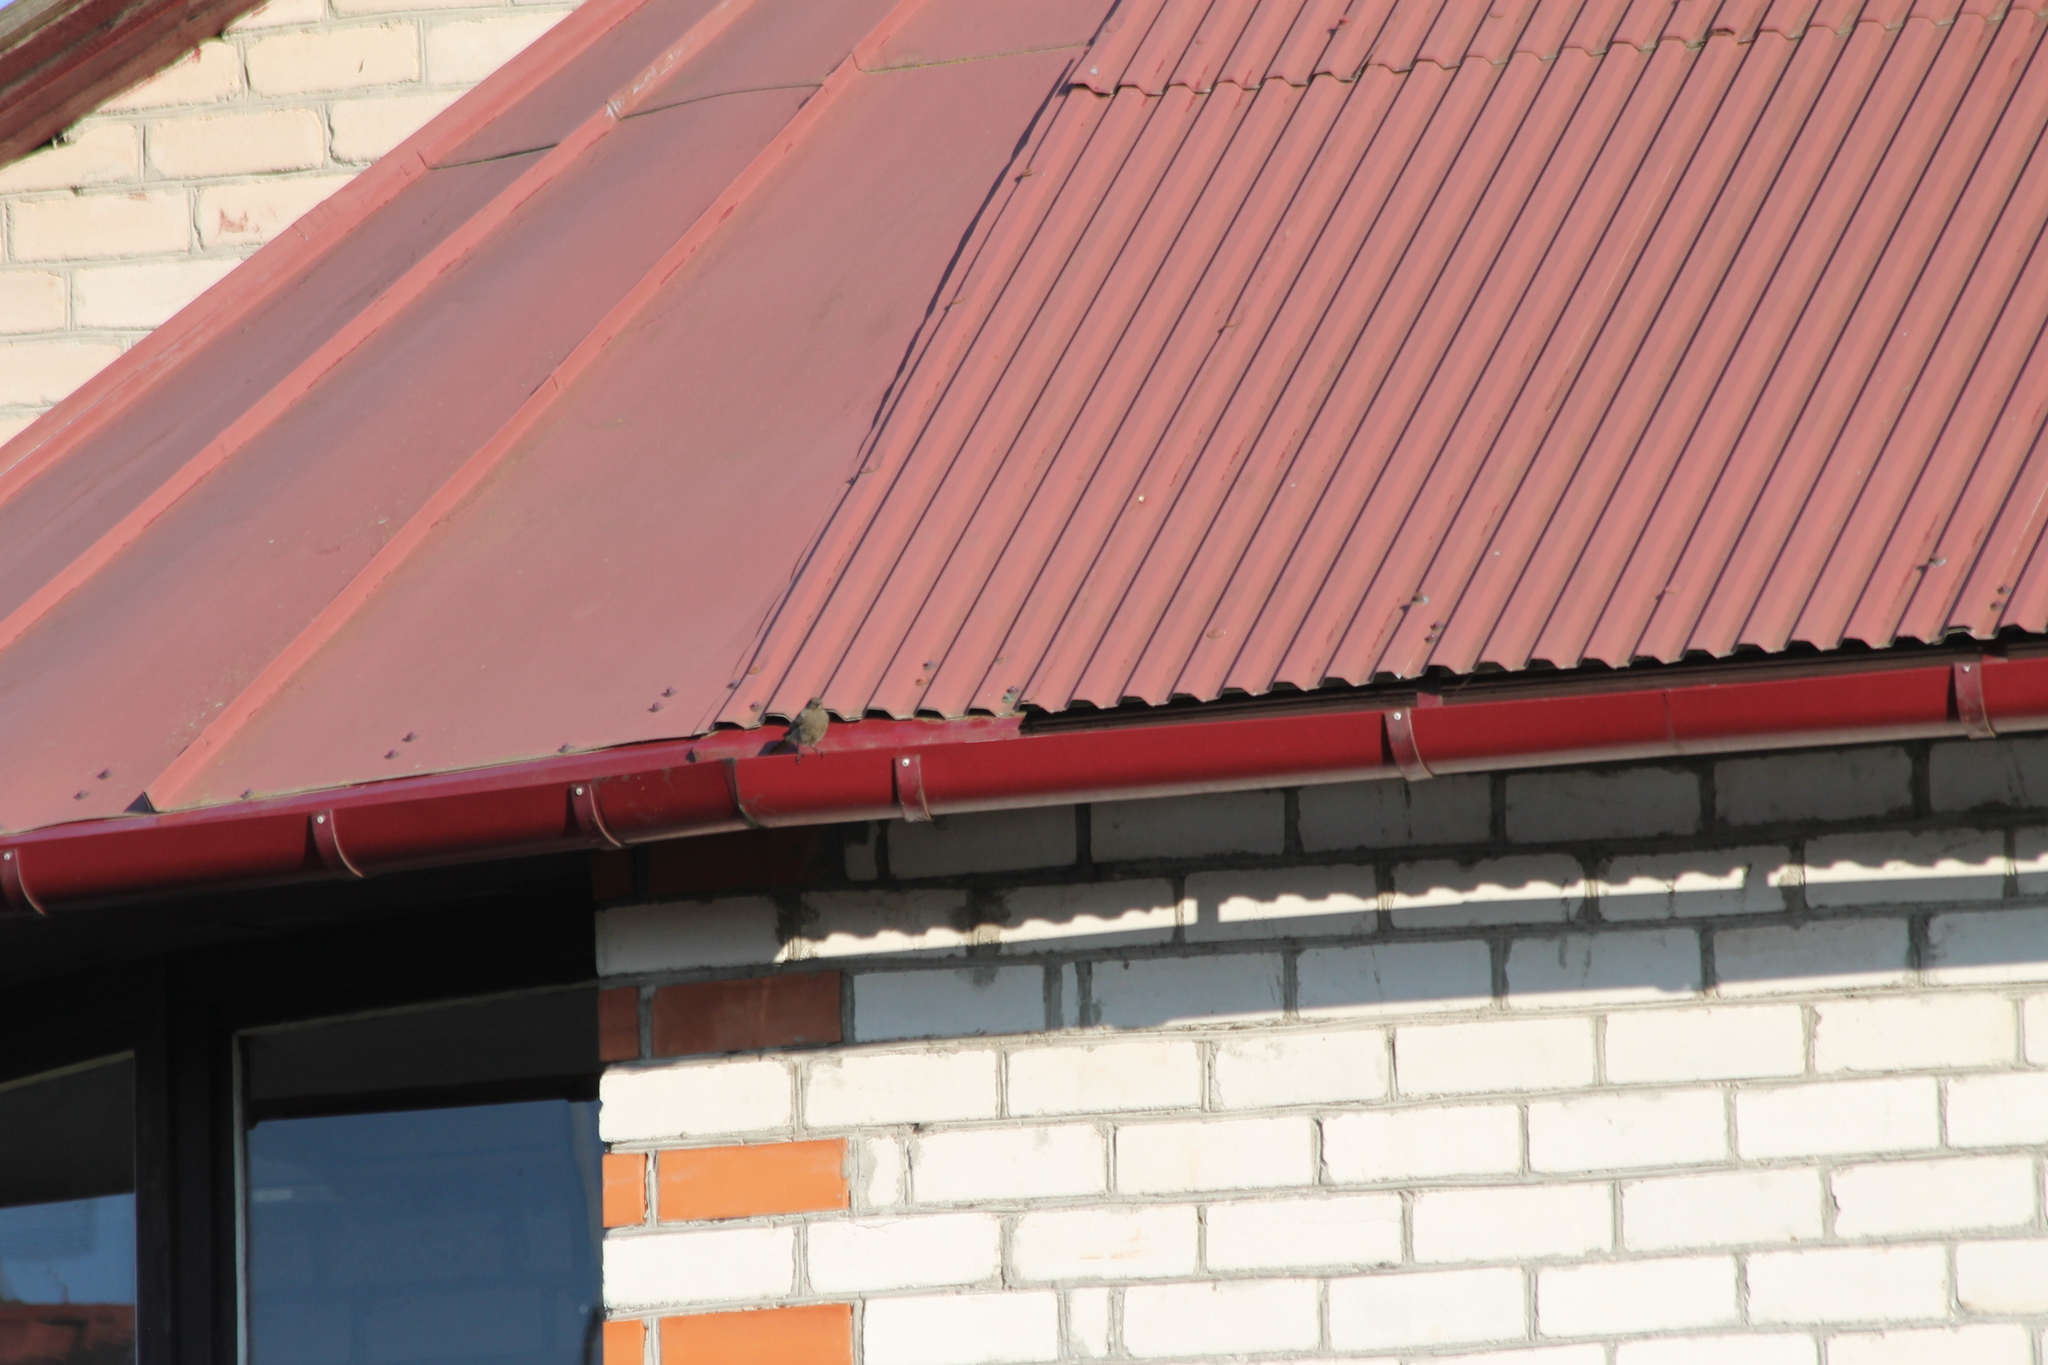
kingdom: Animalia
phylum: Chordata
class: Aves
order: Passeriformes
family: Muscicapidae
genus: Phoenicurus
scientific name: Phoenicurus ochruros
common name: Black redstart
